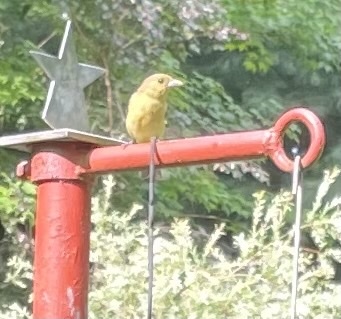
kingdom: Animalia
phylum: Chordata
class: Aves
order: Passeriformes
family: Cardinalidae
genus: Piranga
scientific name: Piranga olivacea
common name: Scarlet tanager
